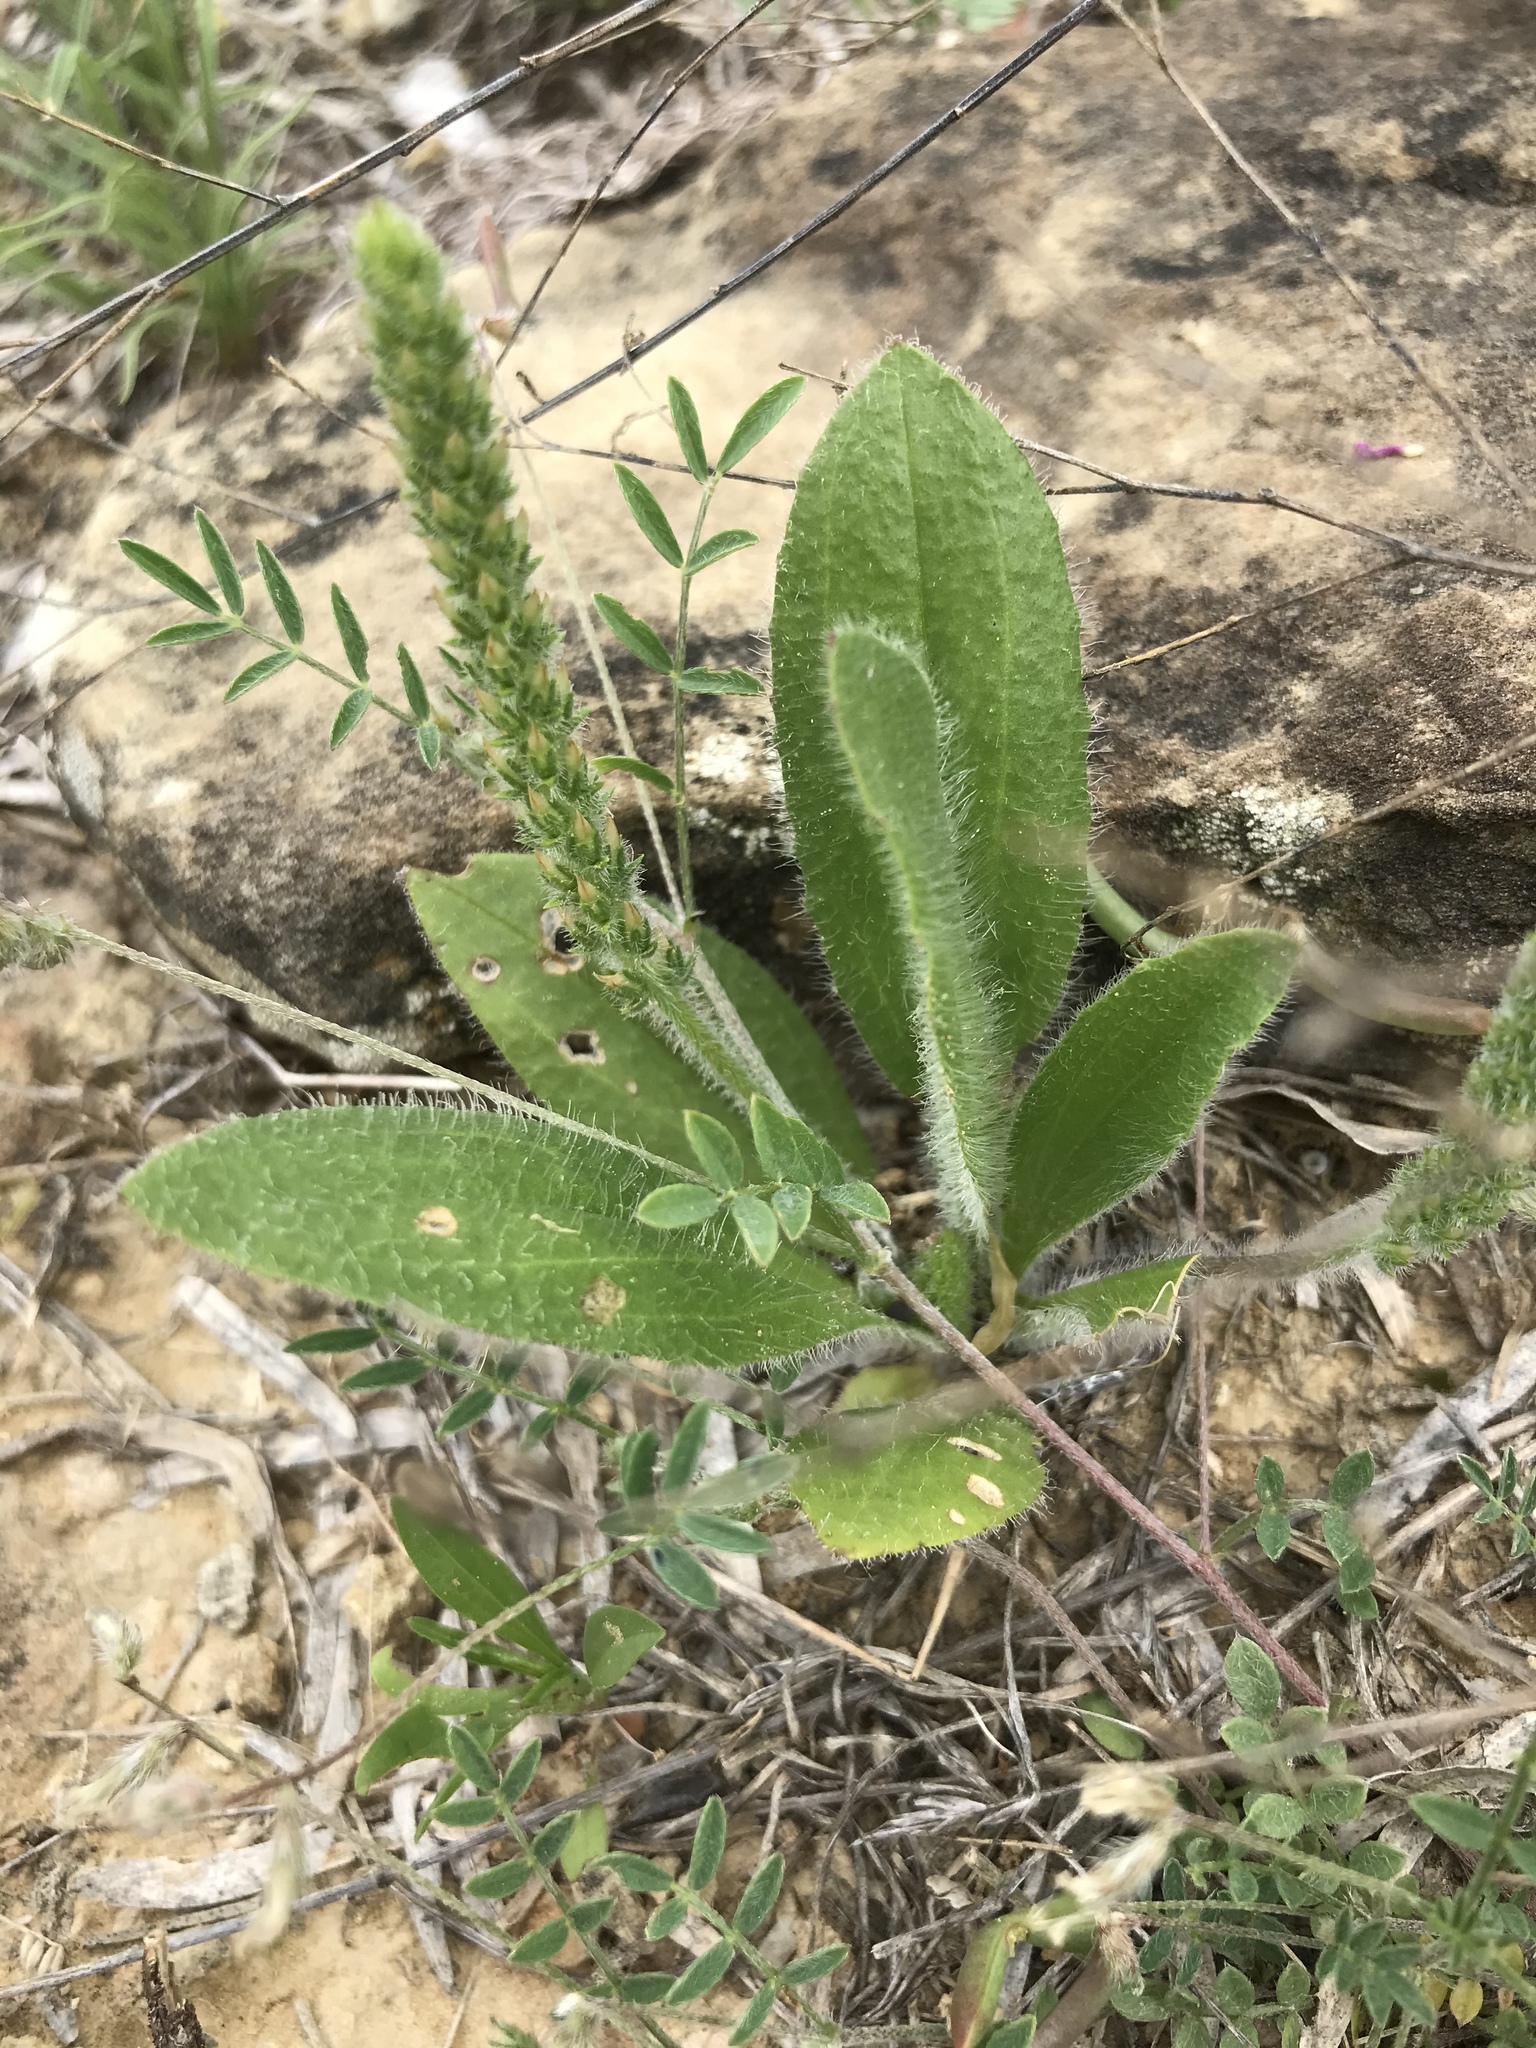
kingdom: Plantae
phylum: Tracheophyta
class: Magnoliopsida
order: Lamiales
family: Plantaginaceae
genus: Plantago
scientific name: Plantago rhodosperma
